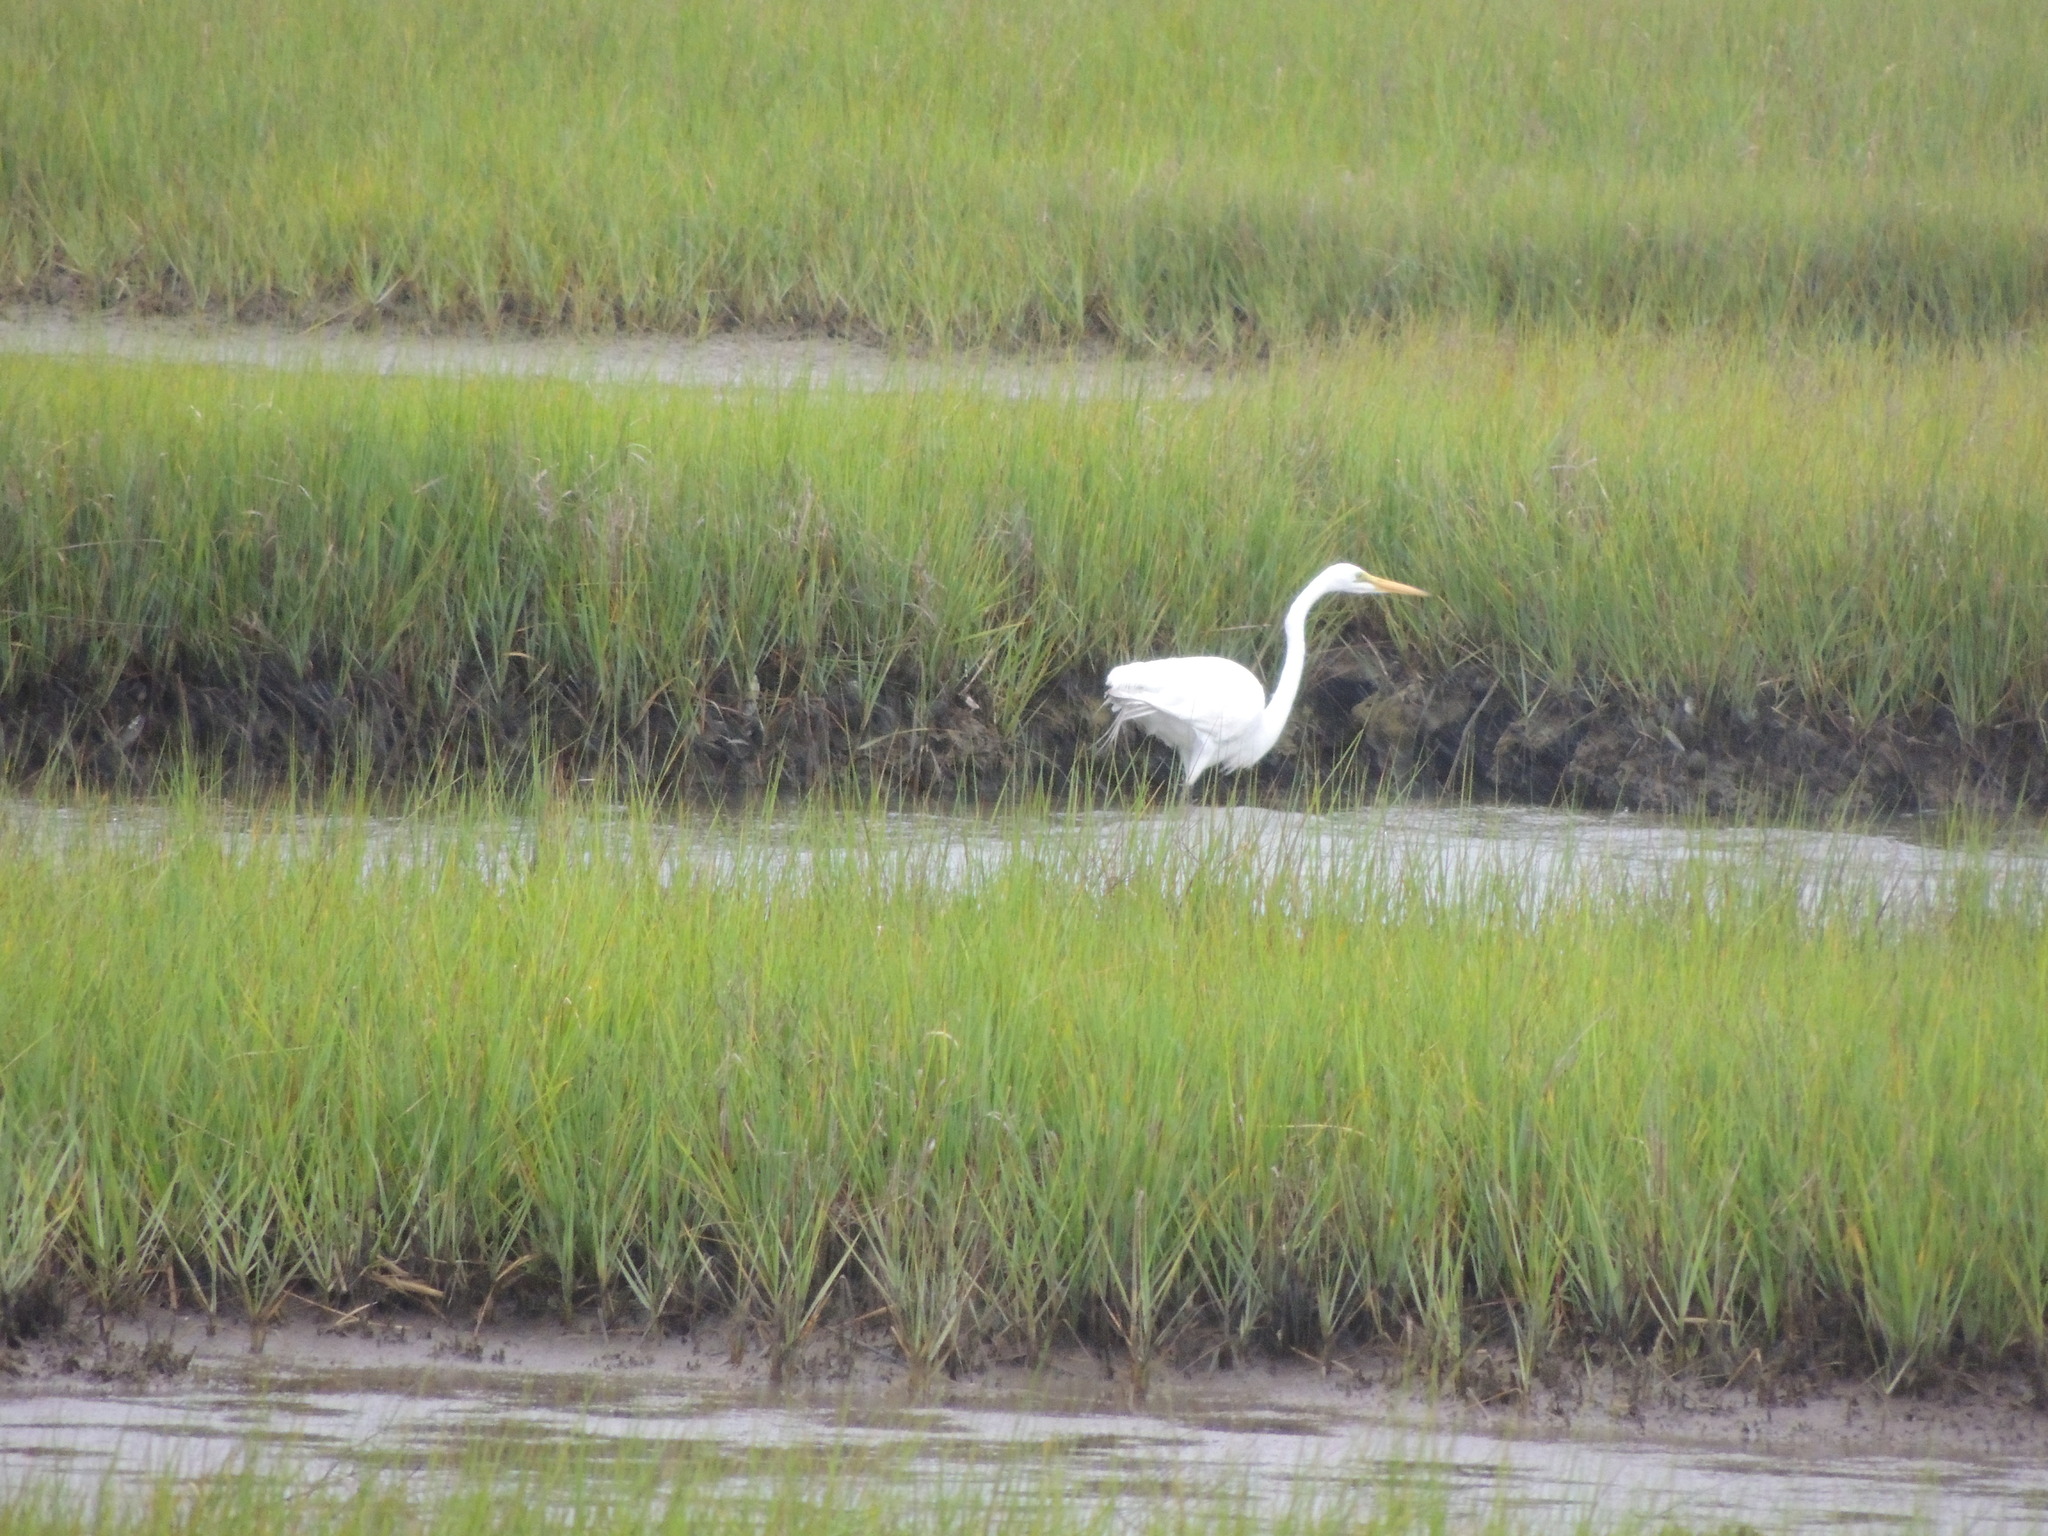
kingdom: Animalia
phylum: Chordata
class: Aves
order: Pelecaniformes
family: Ardeidae
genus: Ardea
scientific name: Ardea alba
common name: Great egret
